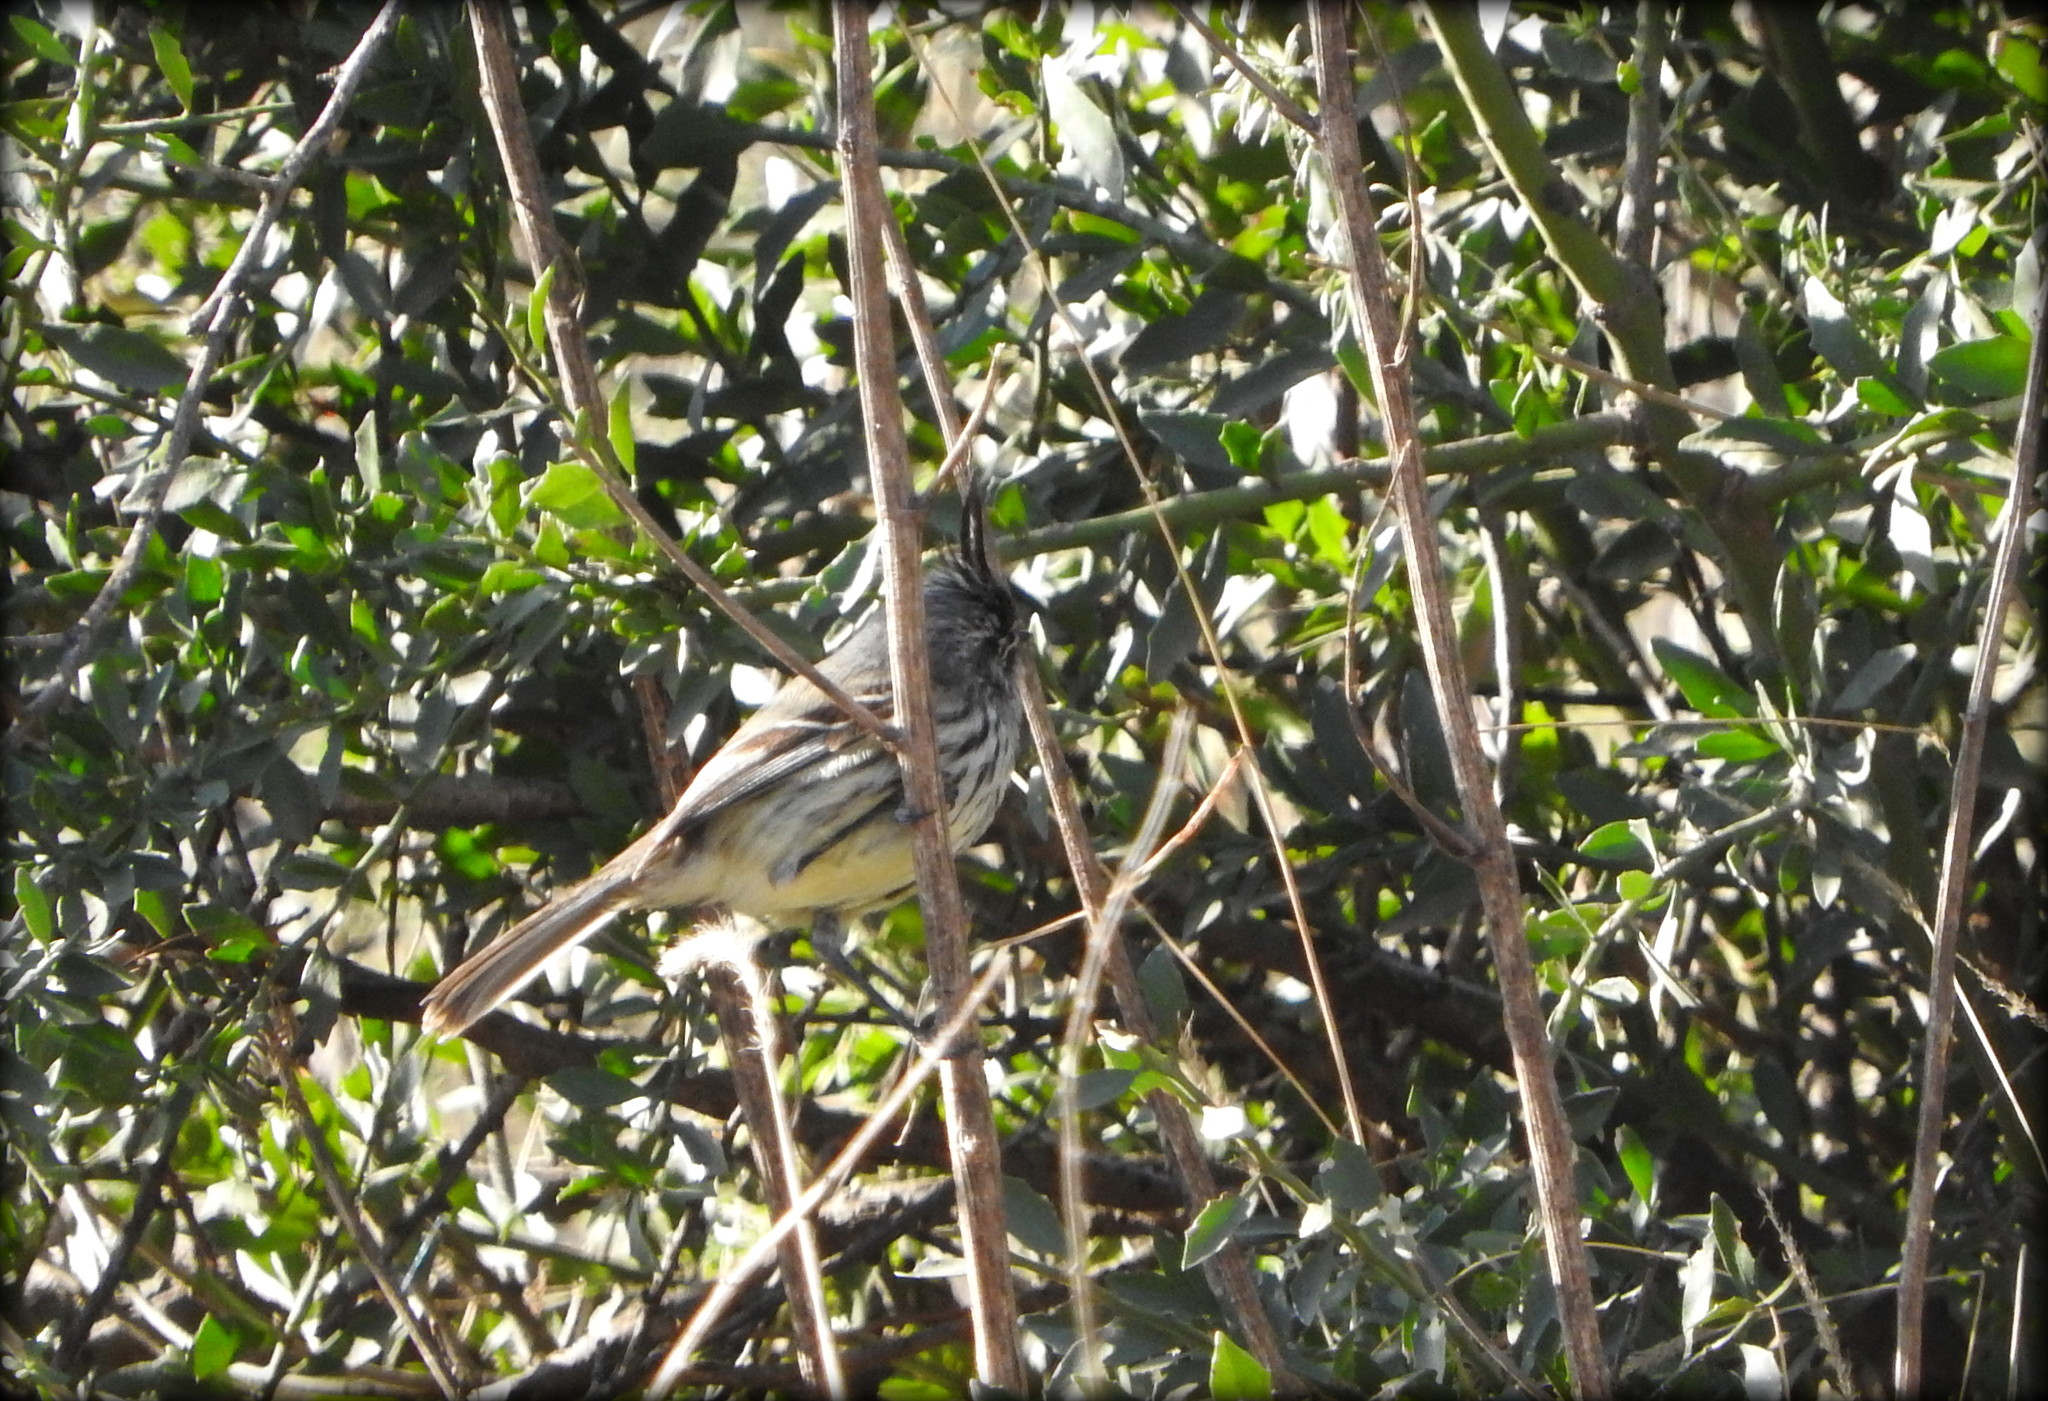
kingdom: Animalia
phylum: Chordata
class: Aves
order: Passeriformes
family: Tyrannidae
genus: Anairetes
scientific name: Anairetes parulus
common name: Tufted tit-tyrant
